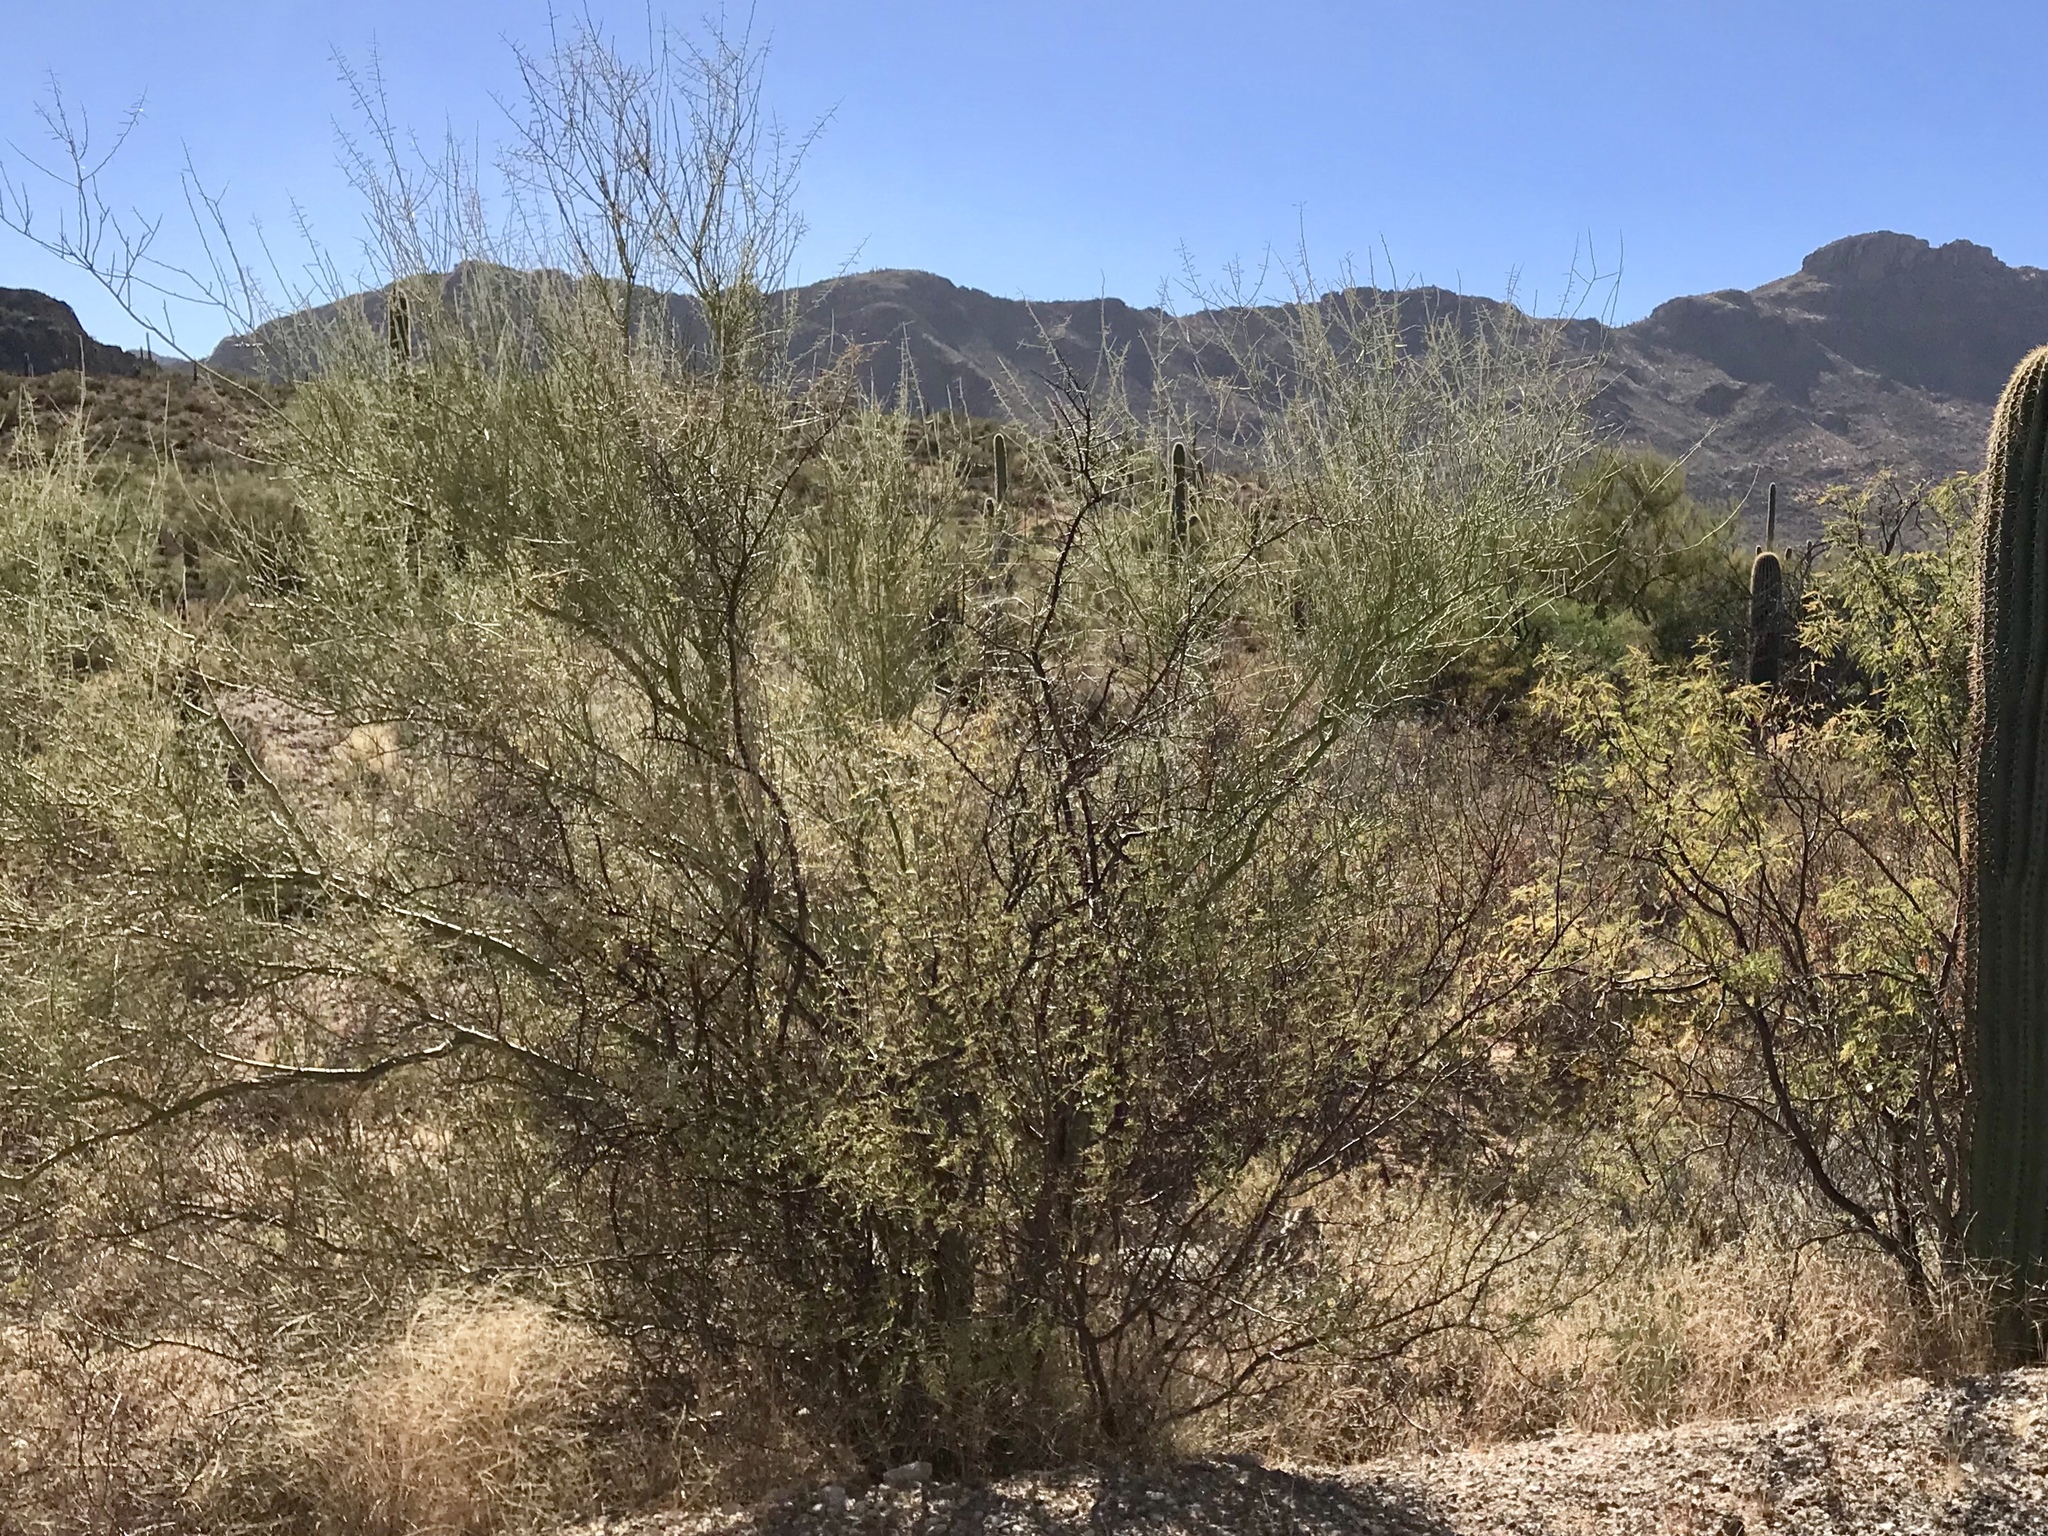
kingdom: Plantae
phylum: Tracheophyta
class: Magnoliopsida
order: Fabales
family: Fabaceae
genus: Vachellia
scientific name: Vachellia constricta
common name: Mescat acacia
